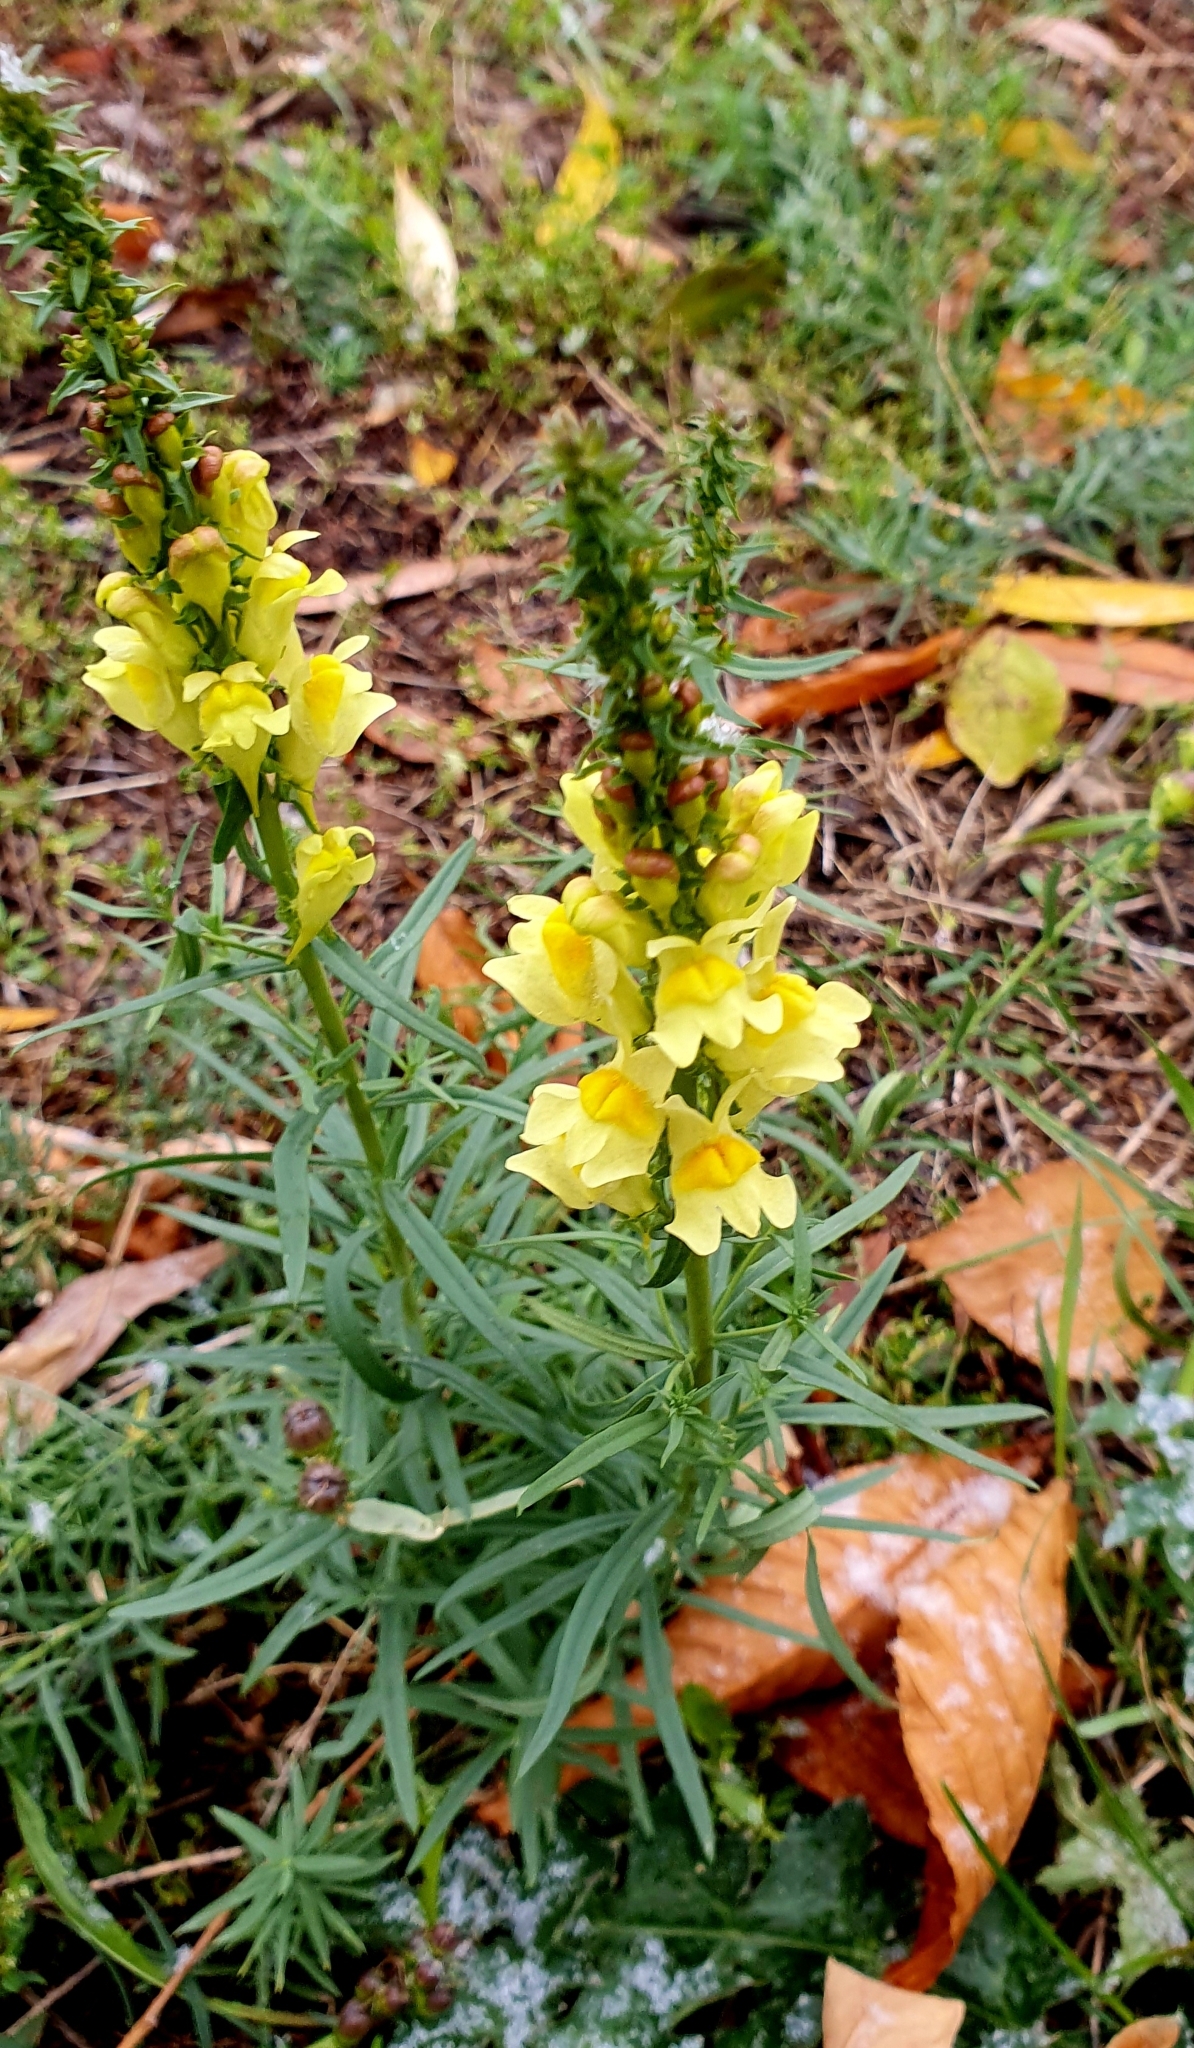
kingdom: Plantae
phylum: Tracheophyta
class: Magnoliopsida
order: Lamiales
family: Plantaginaceae
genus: Linaria
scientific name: Linaria vulgaris
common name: Butter and eggs
